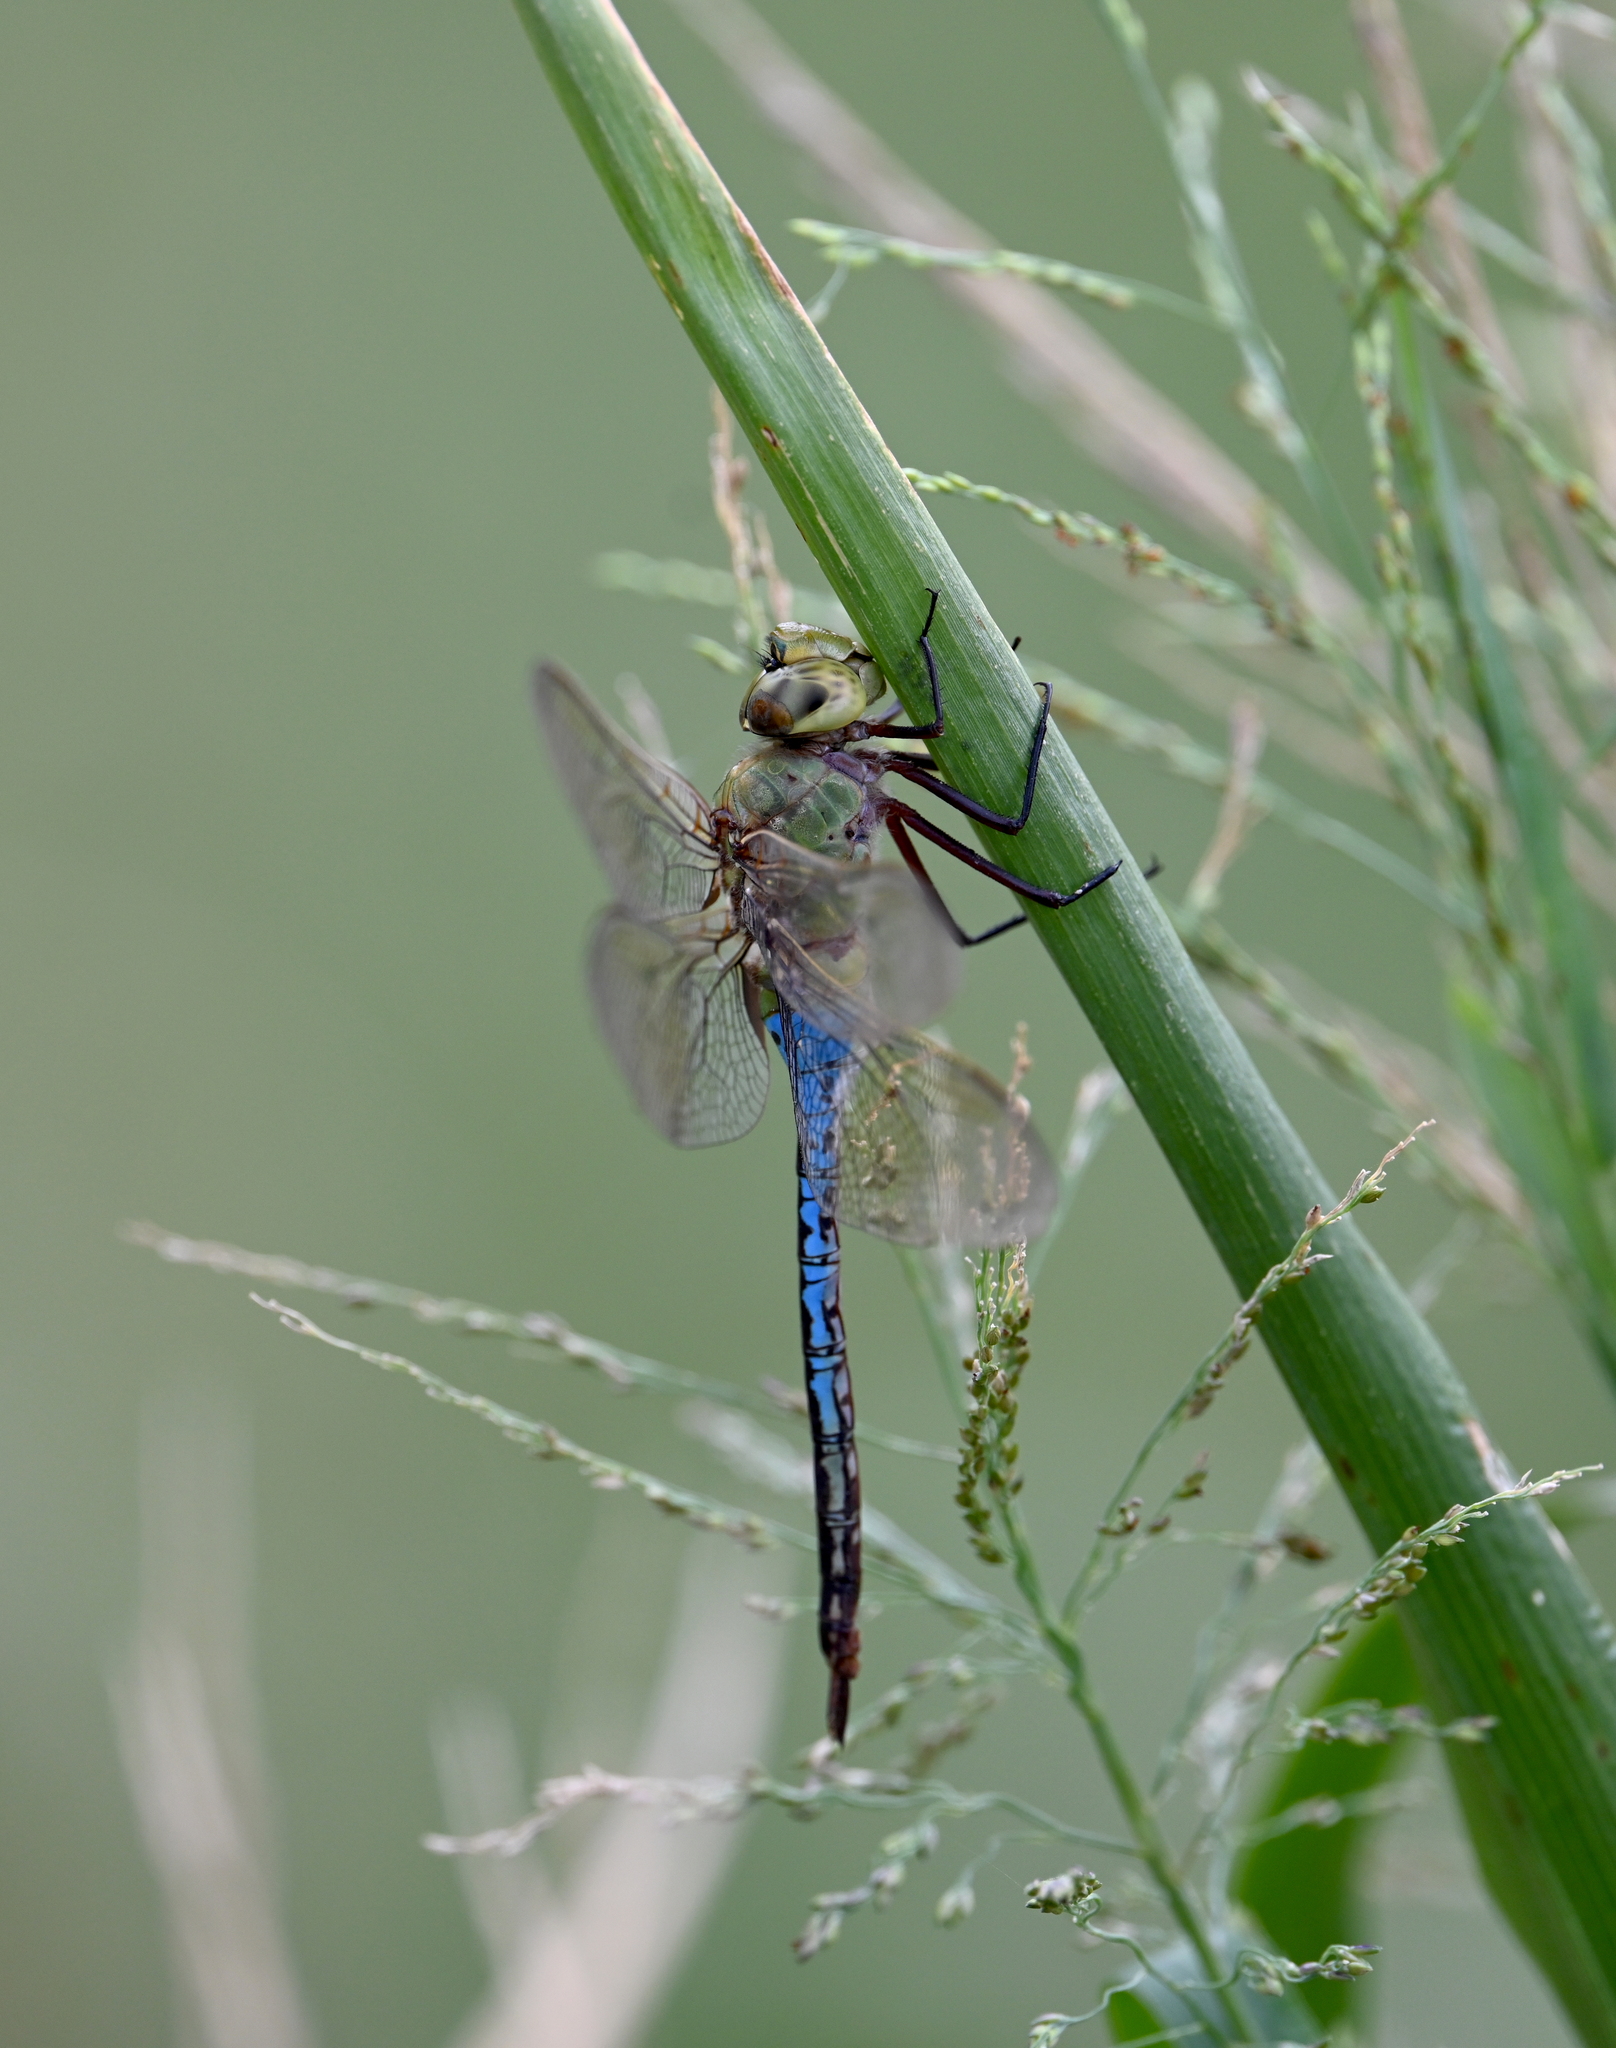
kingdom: Animalia
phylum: Arthropoda
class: Insecta
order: Odonata
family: Aeshnidae
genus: Anax
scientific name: Anax junius
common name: Common green darner
